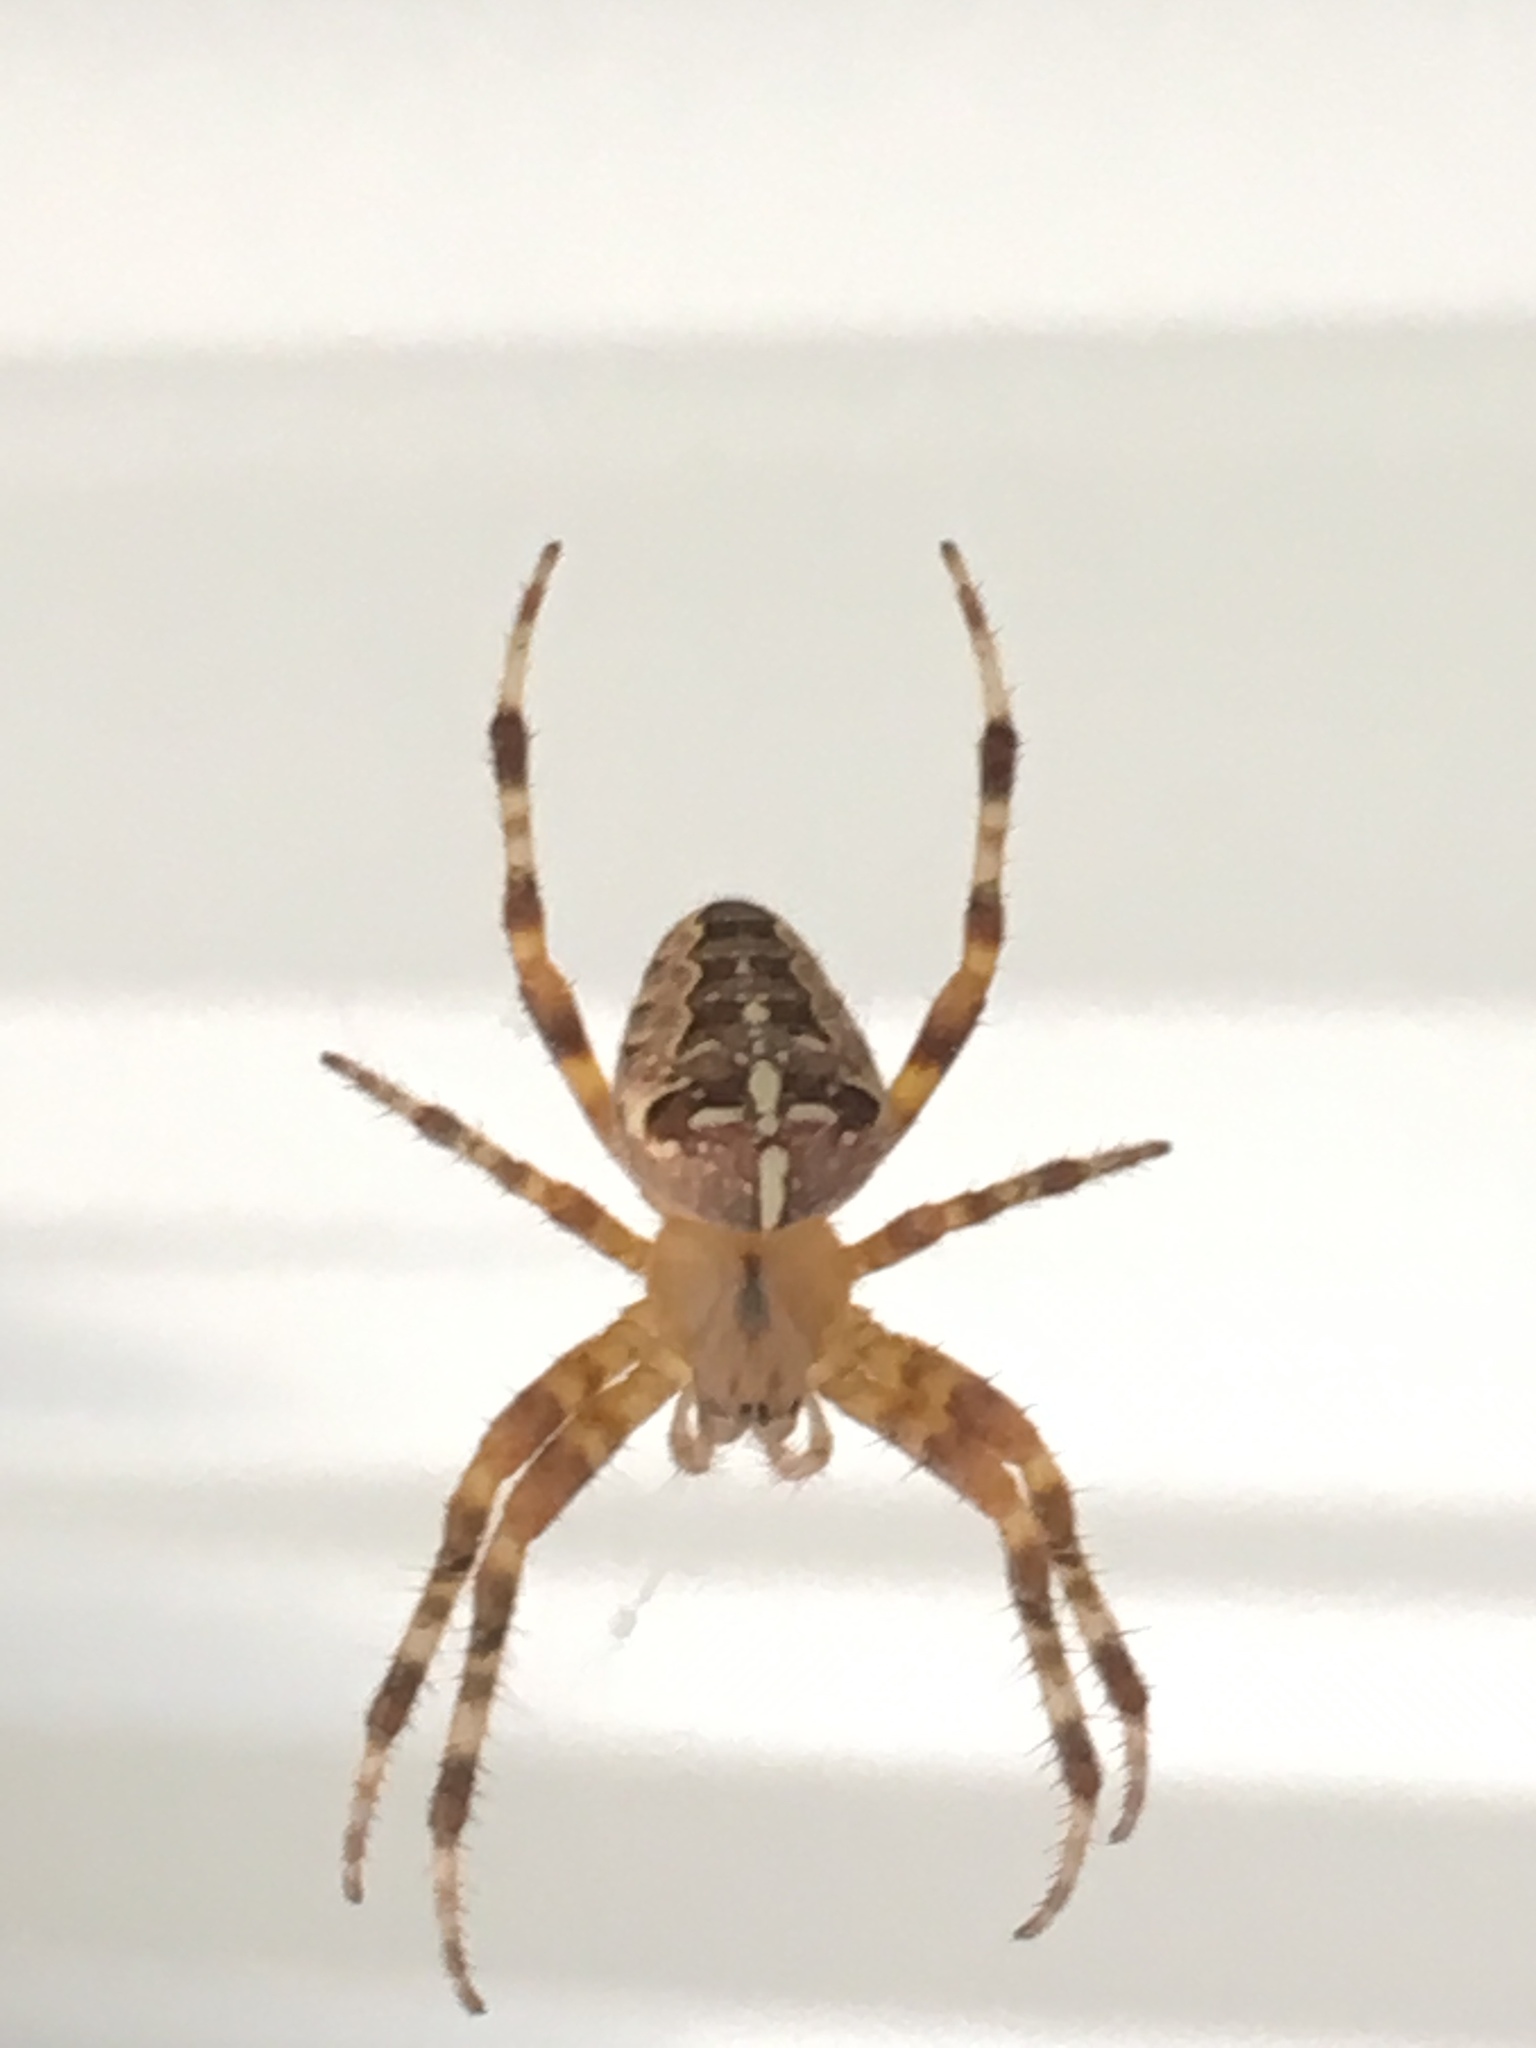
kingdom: Animalia
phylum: Arthropoda
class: Arachnida
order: Araneae
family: Araneidae
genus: Araneus
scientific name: Araneus diadematus
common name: Cross orbweaver
